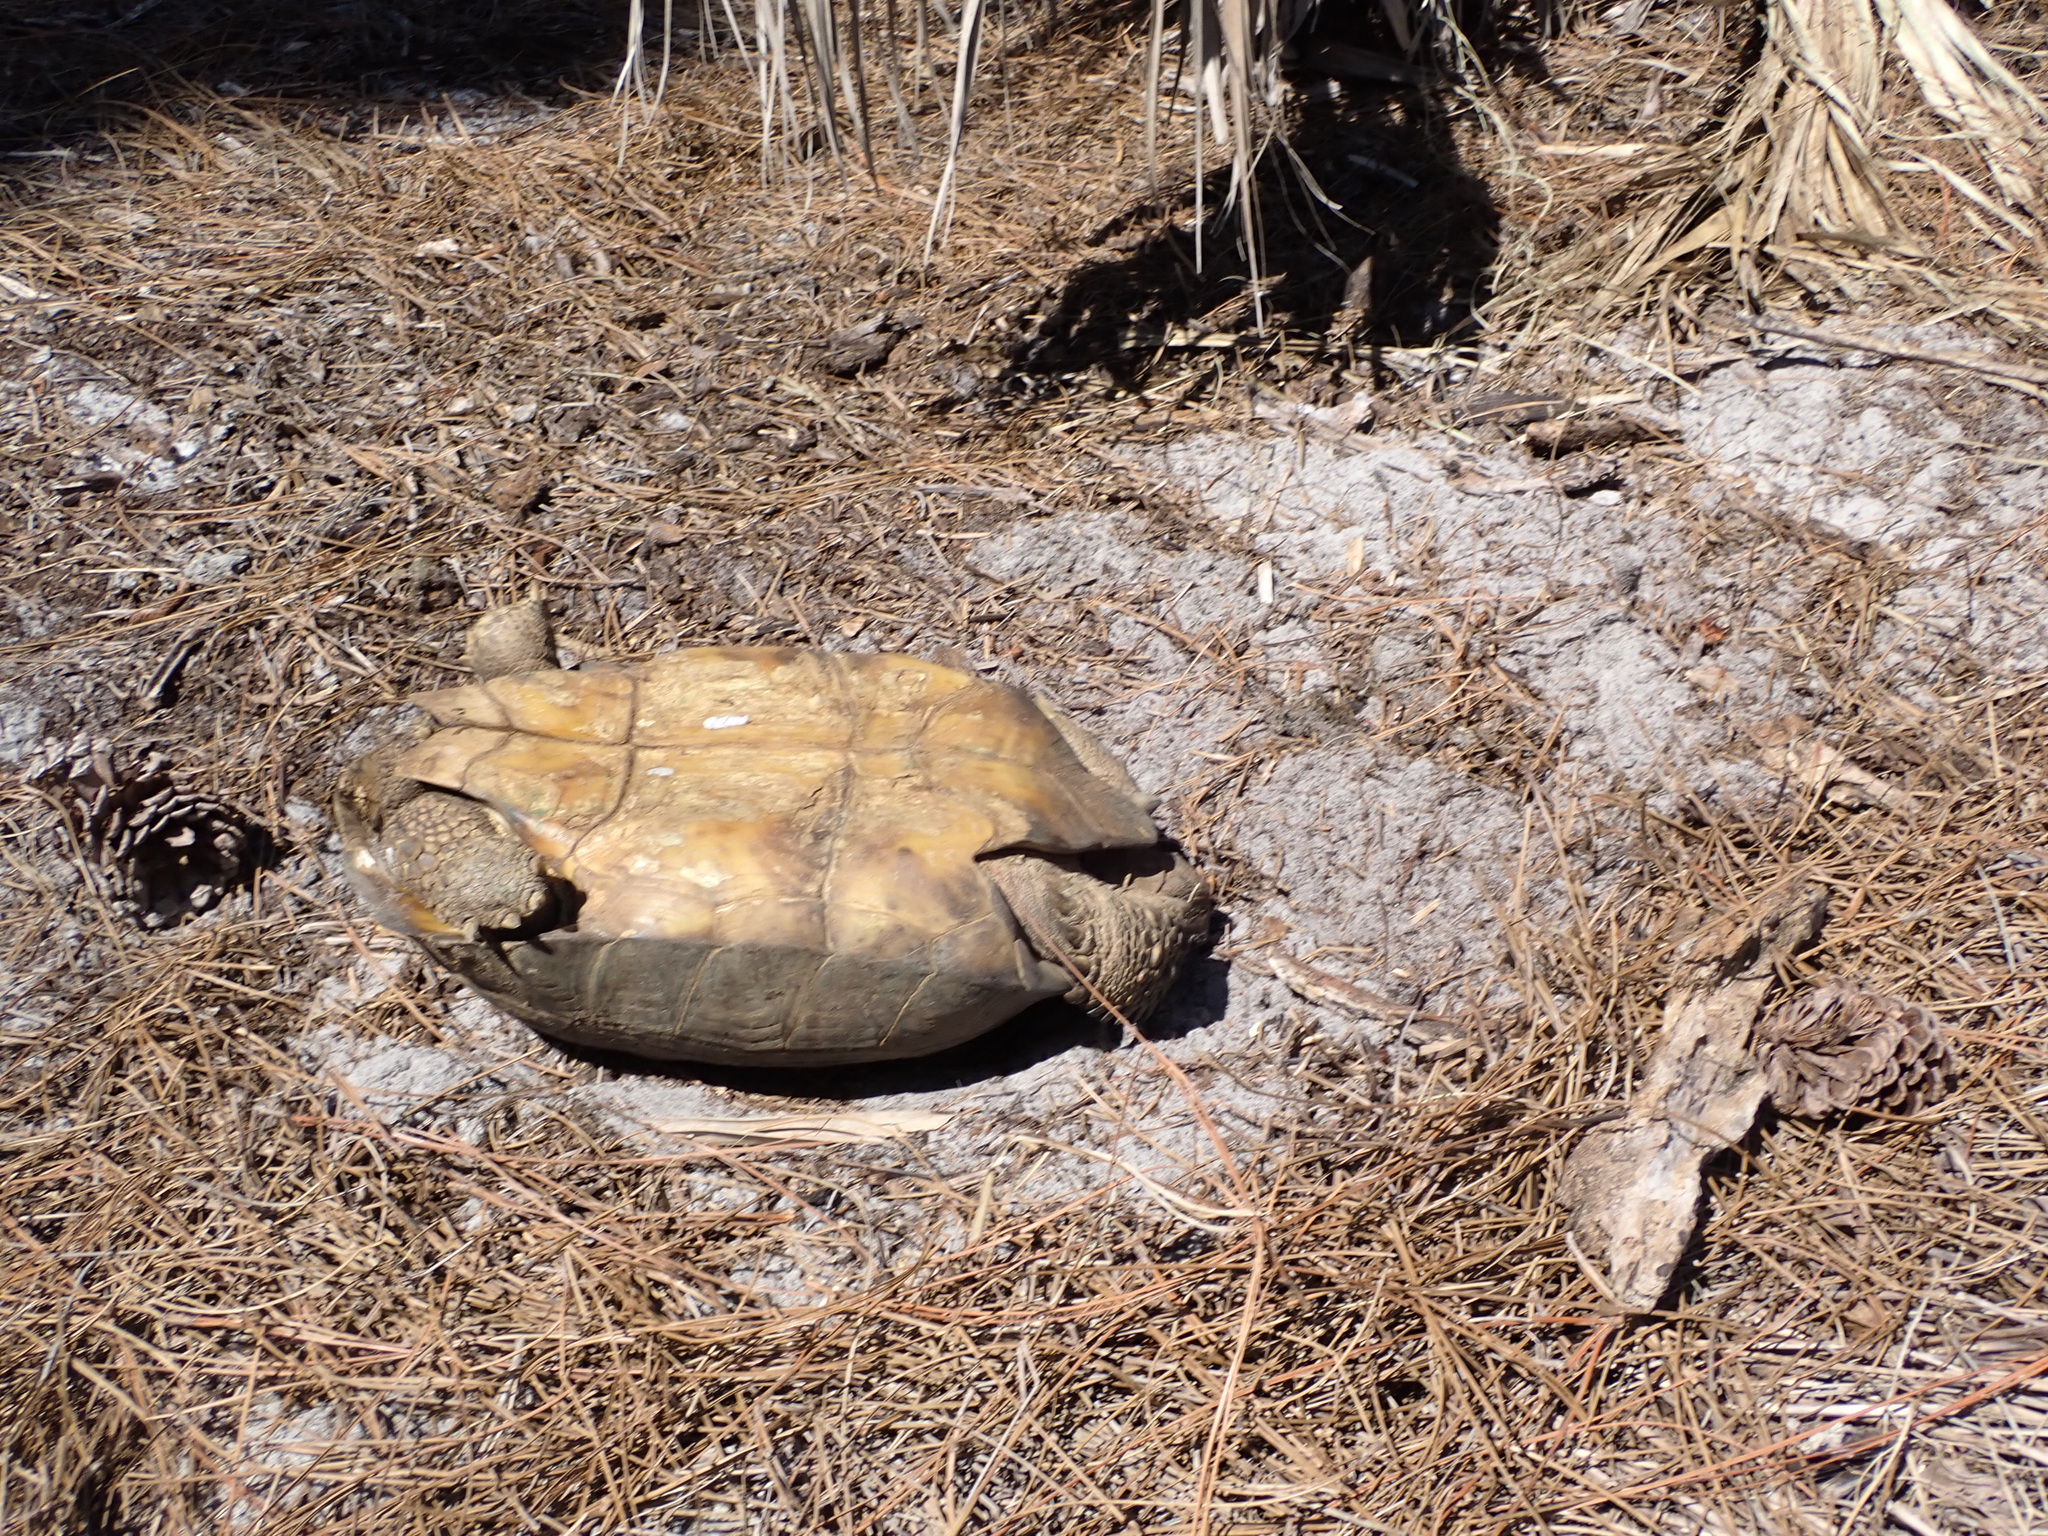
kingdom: Animalia
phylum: Chordata
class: Testudines
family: Testudinidae
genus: Gopherus
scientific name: Gopherus polyphemus
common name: Florida gopher tortoise
